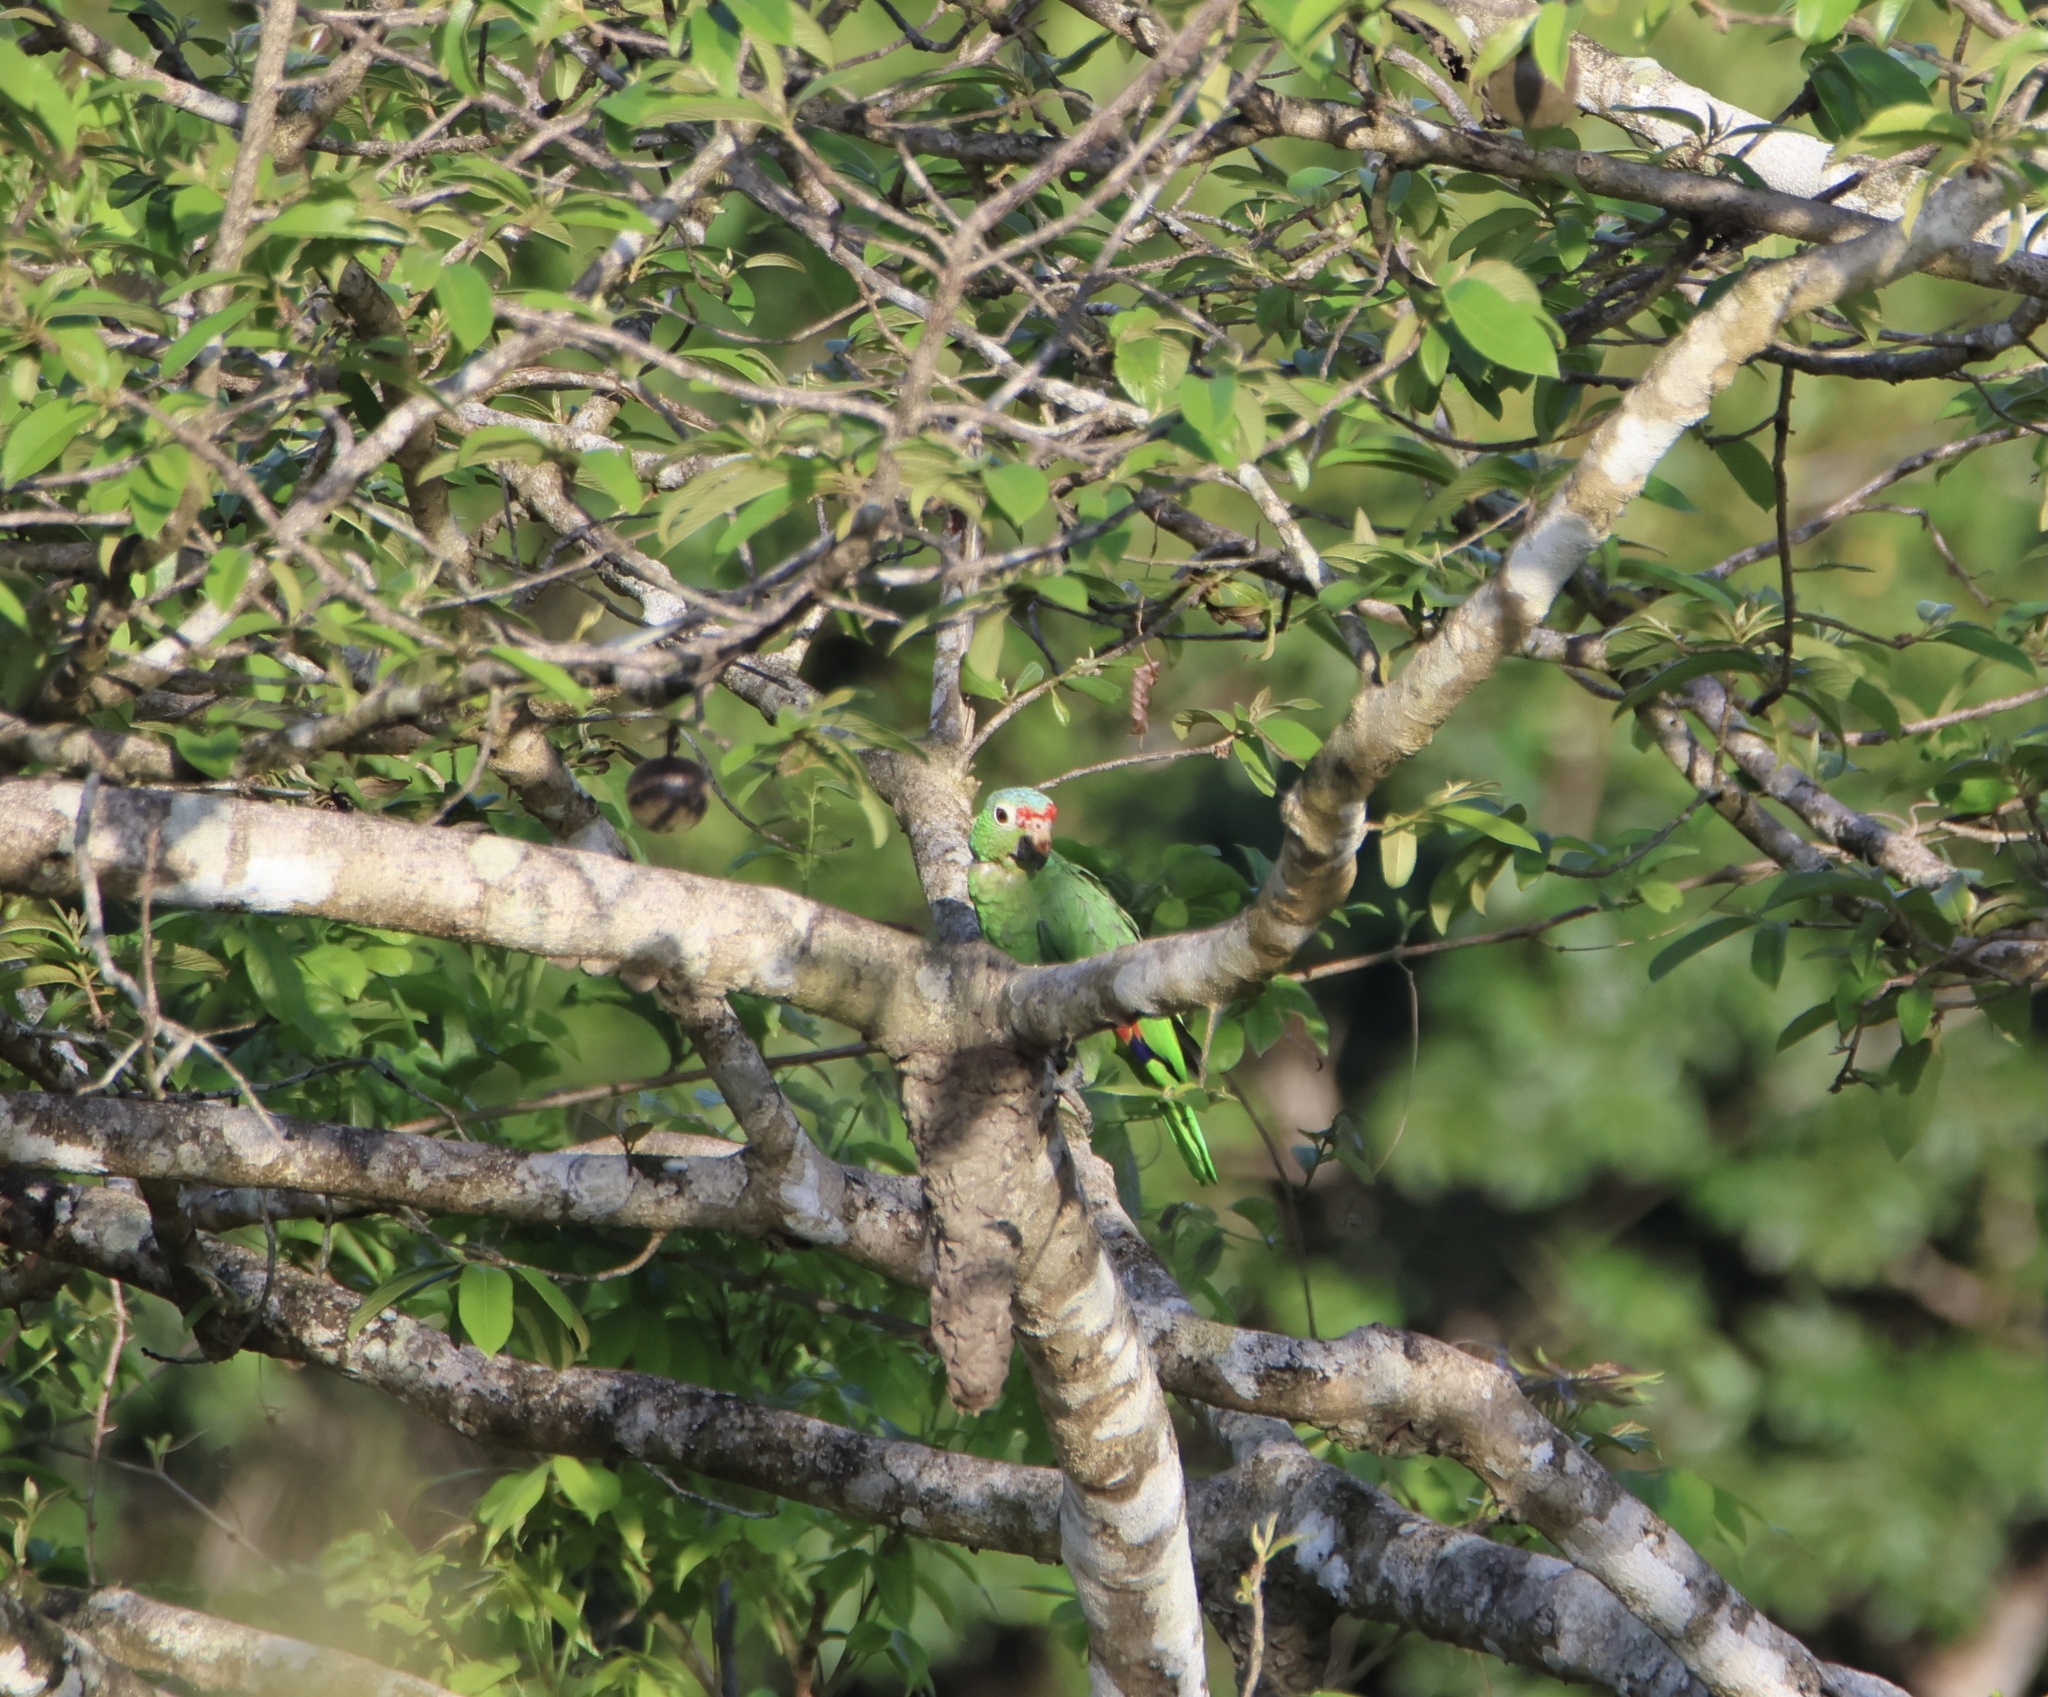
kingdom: Animalia
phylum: Chordata
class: Aves
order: Psittaciformes
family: Psittacidae
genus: Amazona
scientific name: Amazona autumnalis
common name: Red-lored amazon
